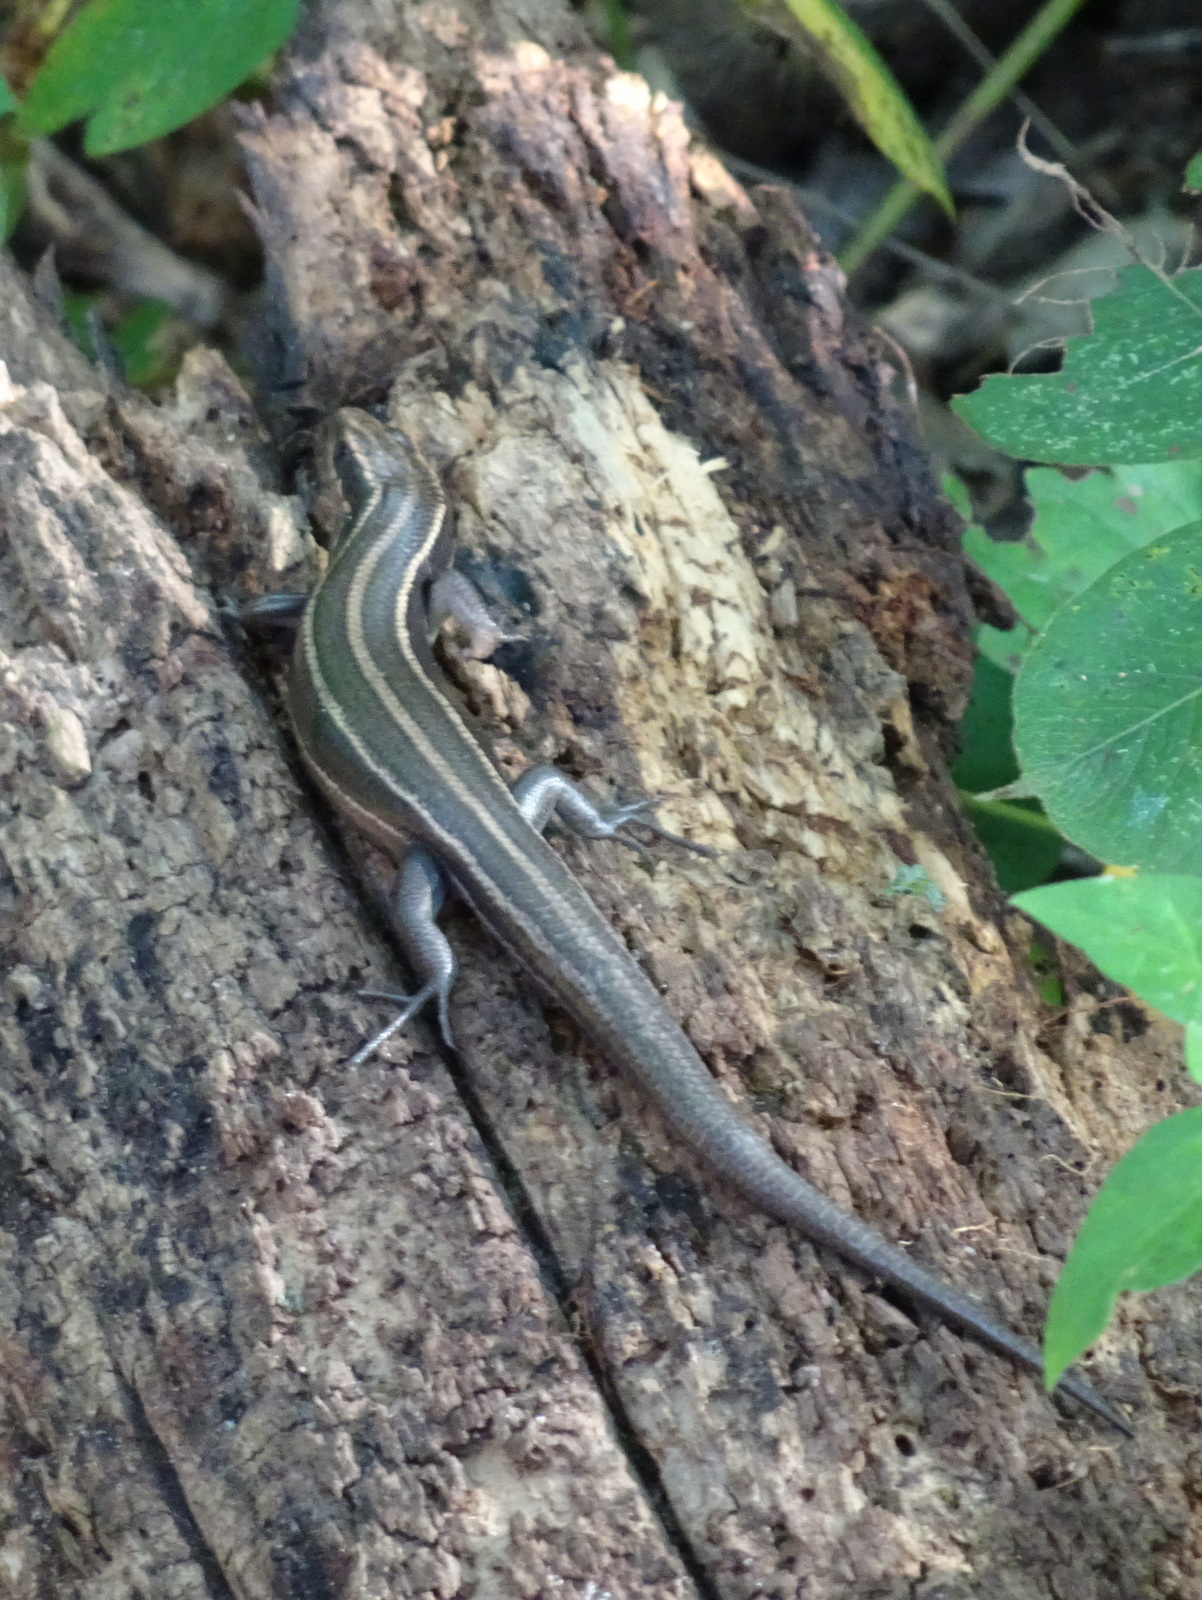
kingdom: Animalia
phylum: Chordata
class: Squamata
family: Scincidae
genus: Plestiodon
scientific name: Plestiodon fasciatus
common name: Five-lined skink
